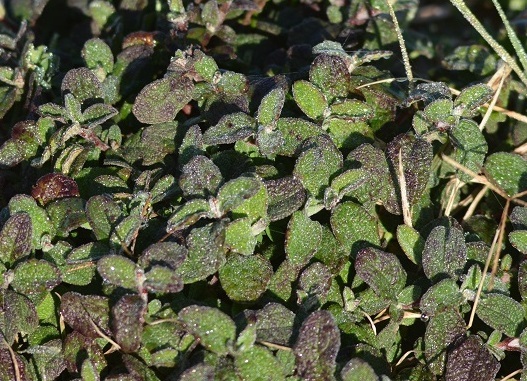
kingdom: Plantae
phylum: Tracheophyta
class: Magnoliopsida
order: Malvales
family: Cistaceae
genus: Cistus
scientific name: Cistus salviifolius
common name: Salvia cistus
